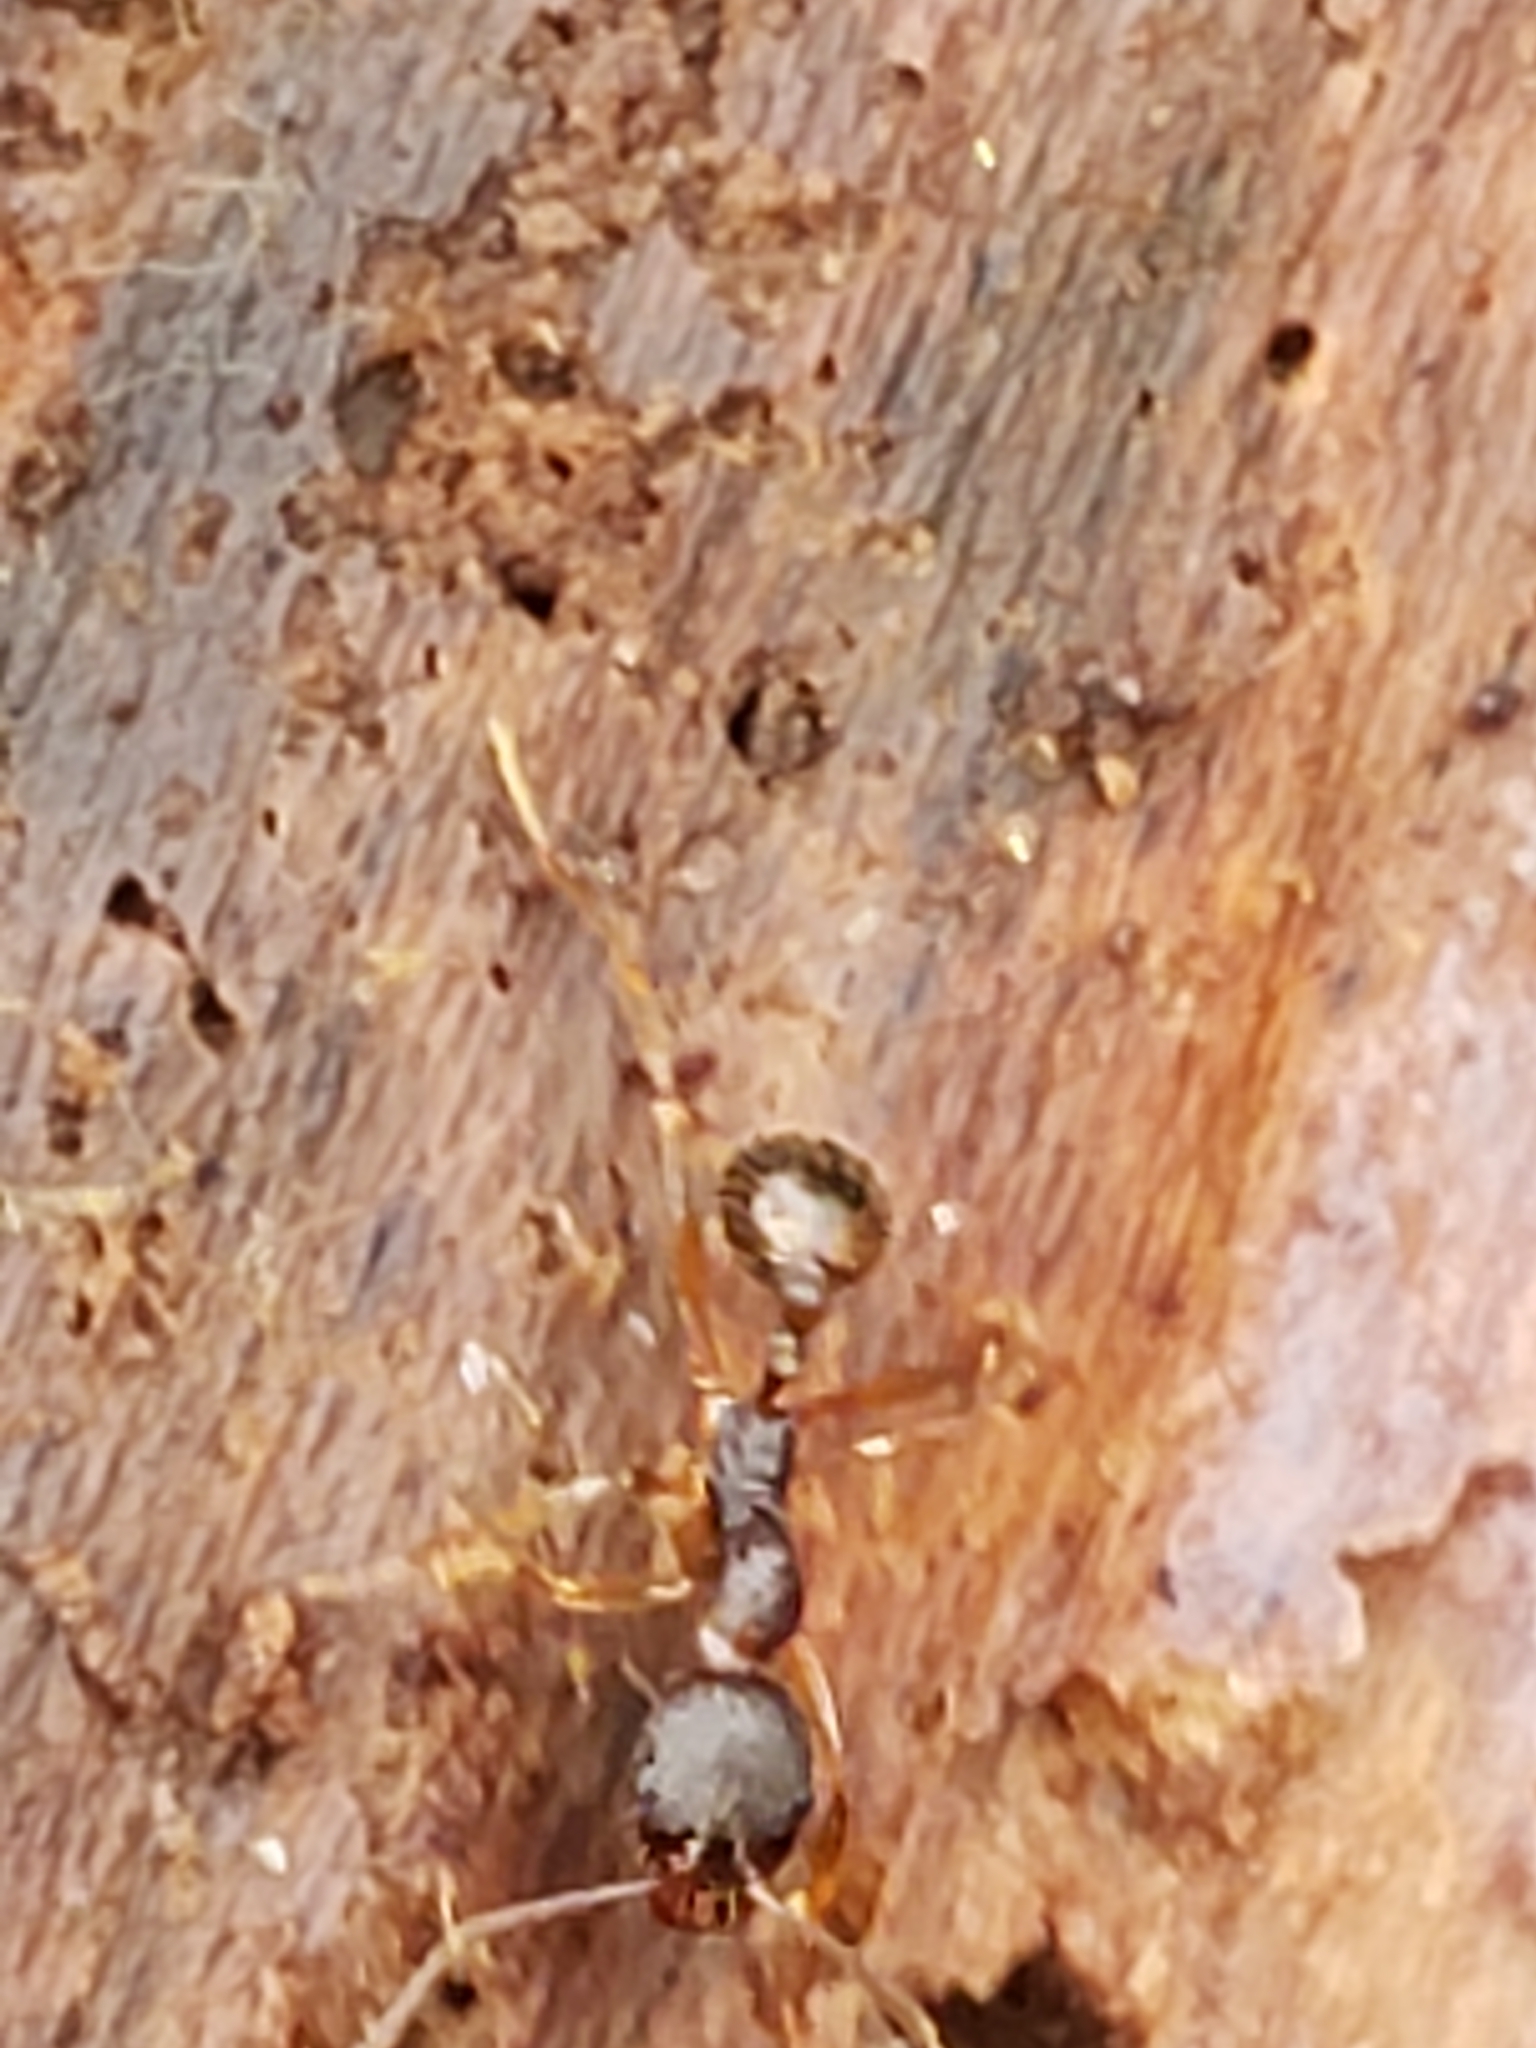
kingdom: Animalia
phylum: Arthropoda
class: Insecta
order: Hymenoptera
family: Formicidae
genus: Aphaenogaster
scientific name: Aphaenogaster rudis
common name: Winnow ant
